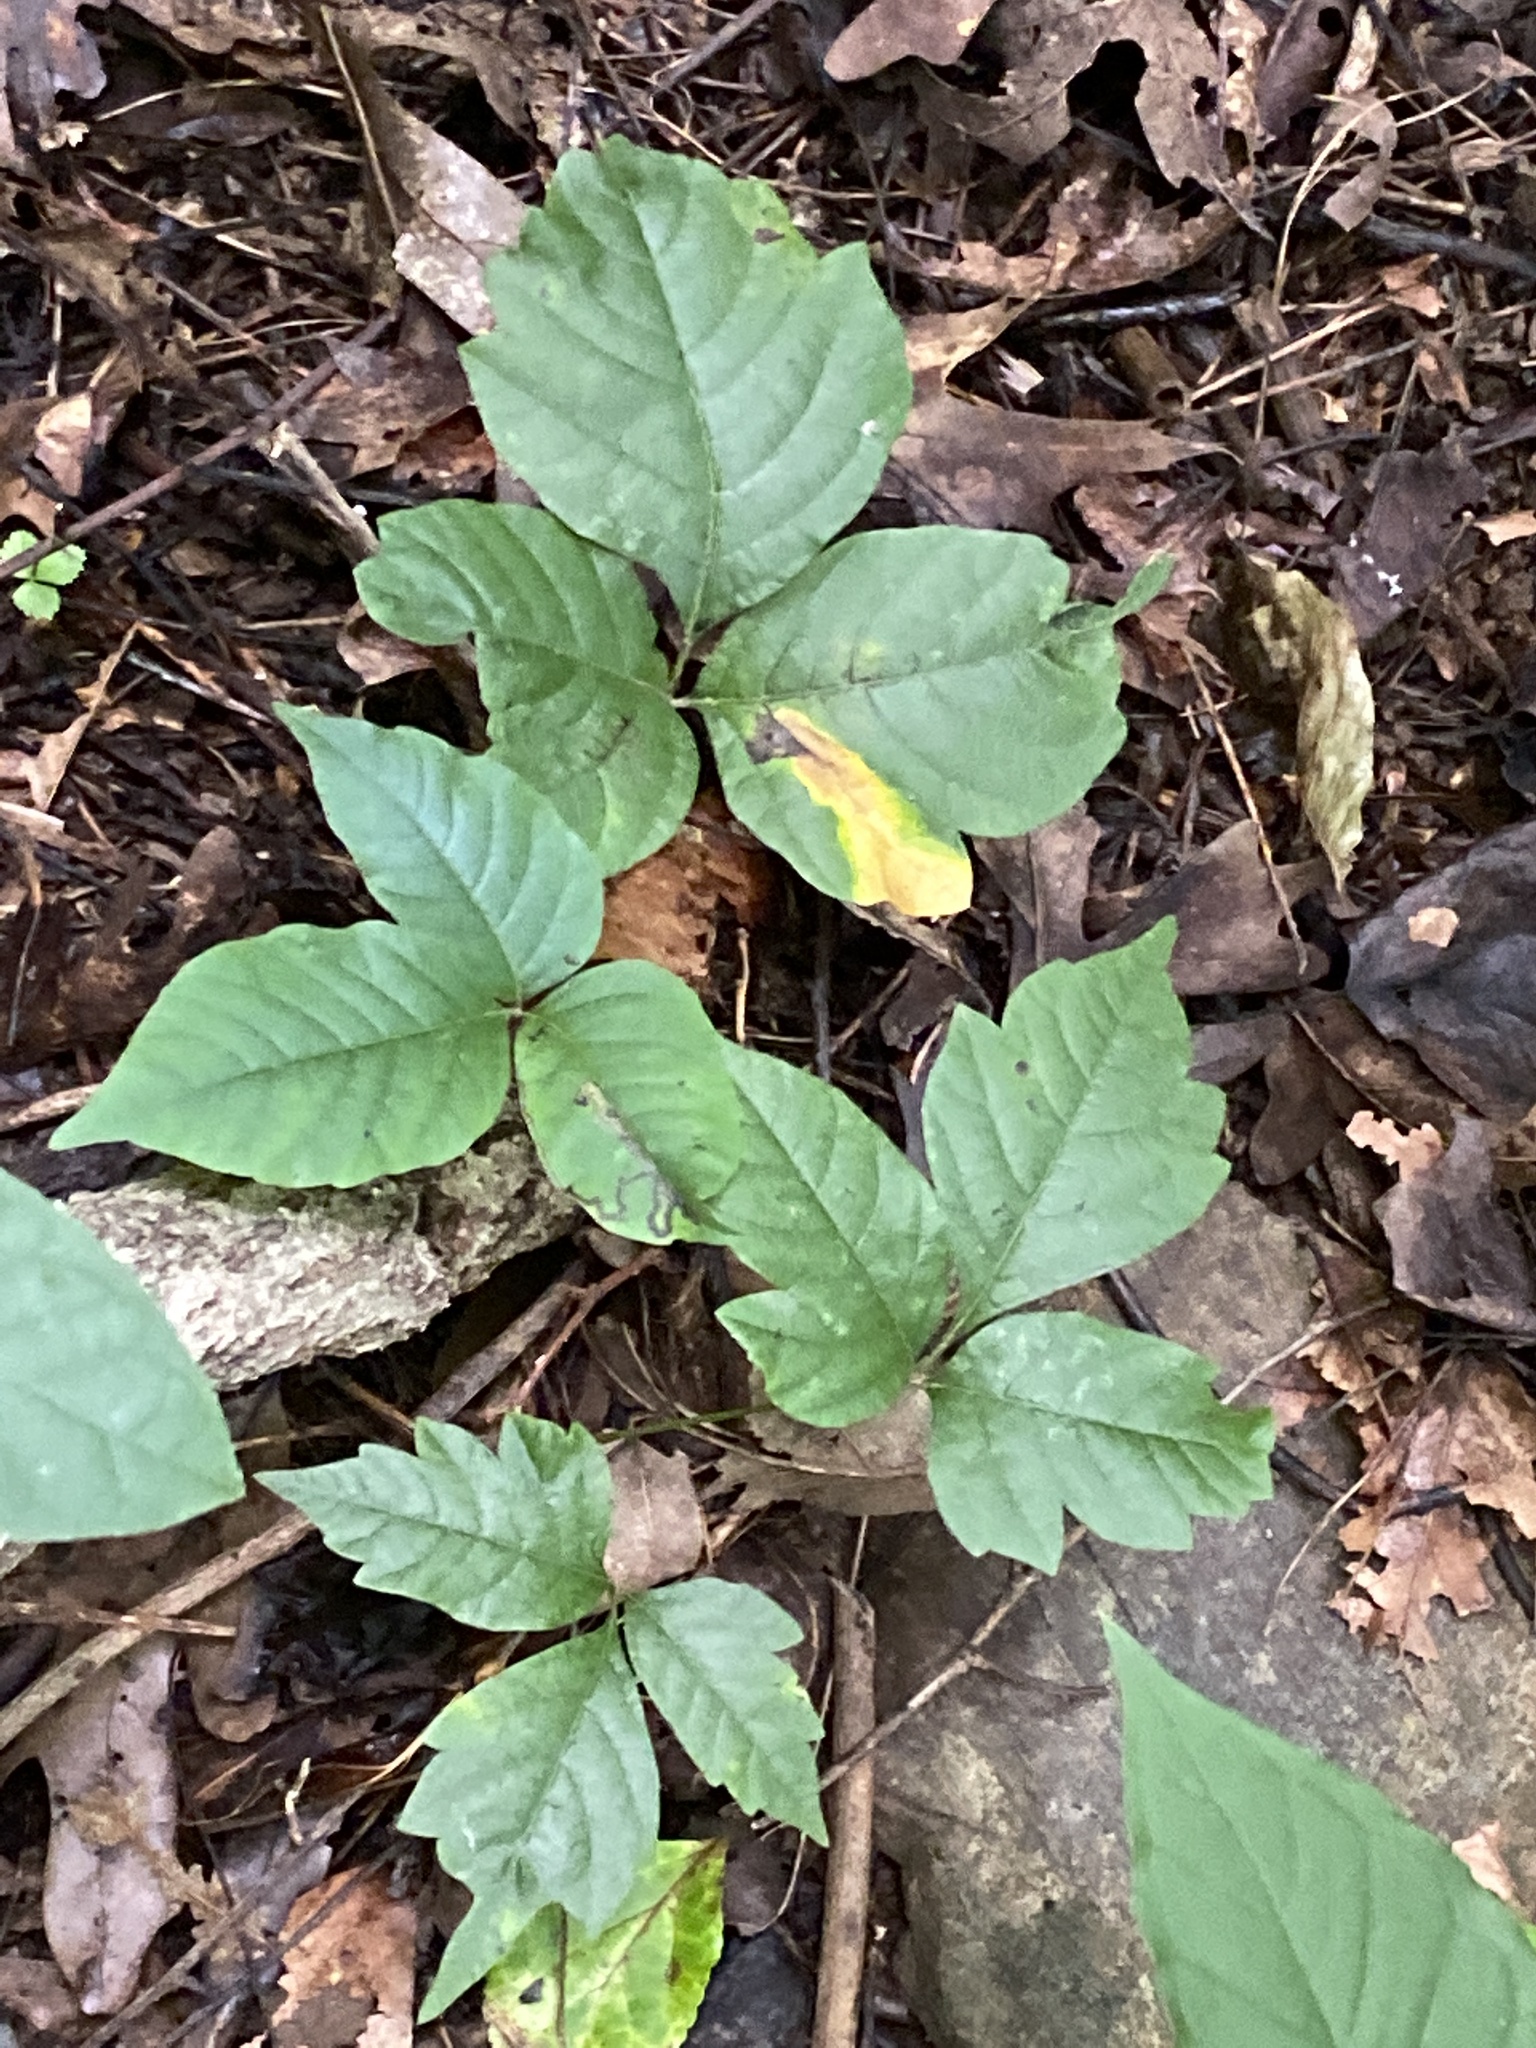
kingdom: Plantae
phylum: Tracheophyta
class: Magnoliopsida
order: Sapindales
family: Anacardiaceae
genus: Toxicodendron
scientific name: Toxicodendron radicans
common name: Poison ivy
